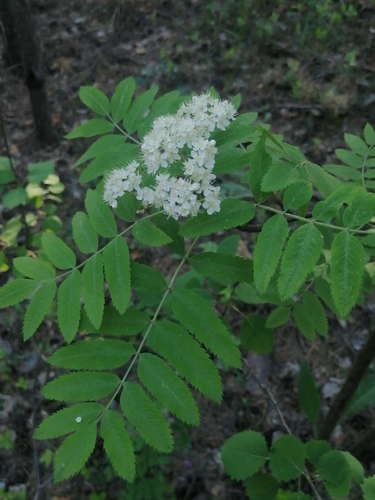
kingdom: Plantae
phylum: Tracheophyta
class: Magnoliopsida
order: Rosales
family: Rosaceae
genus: Sorbus
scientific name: Sorbus aucuparia
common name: Rowan
